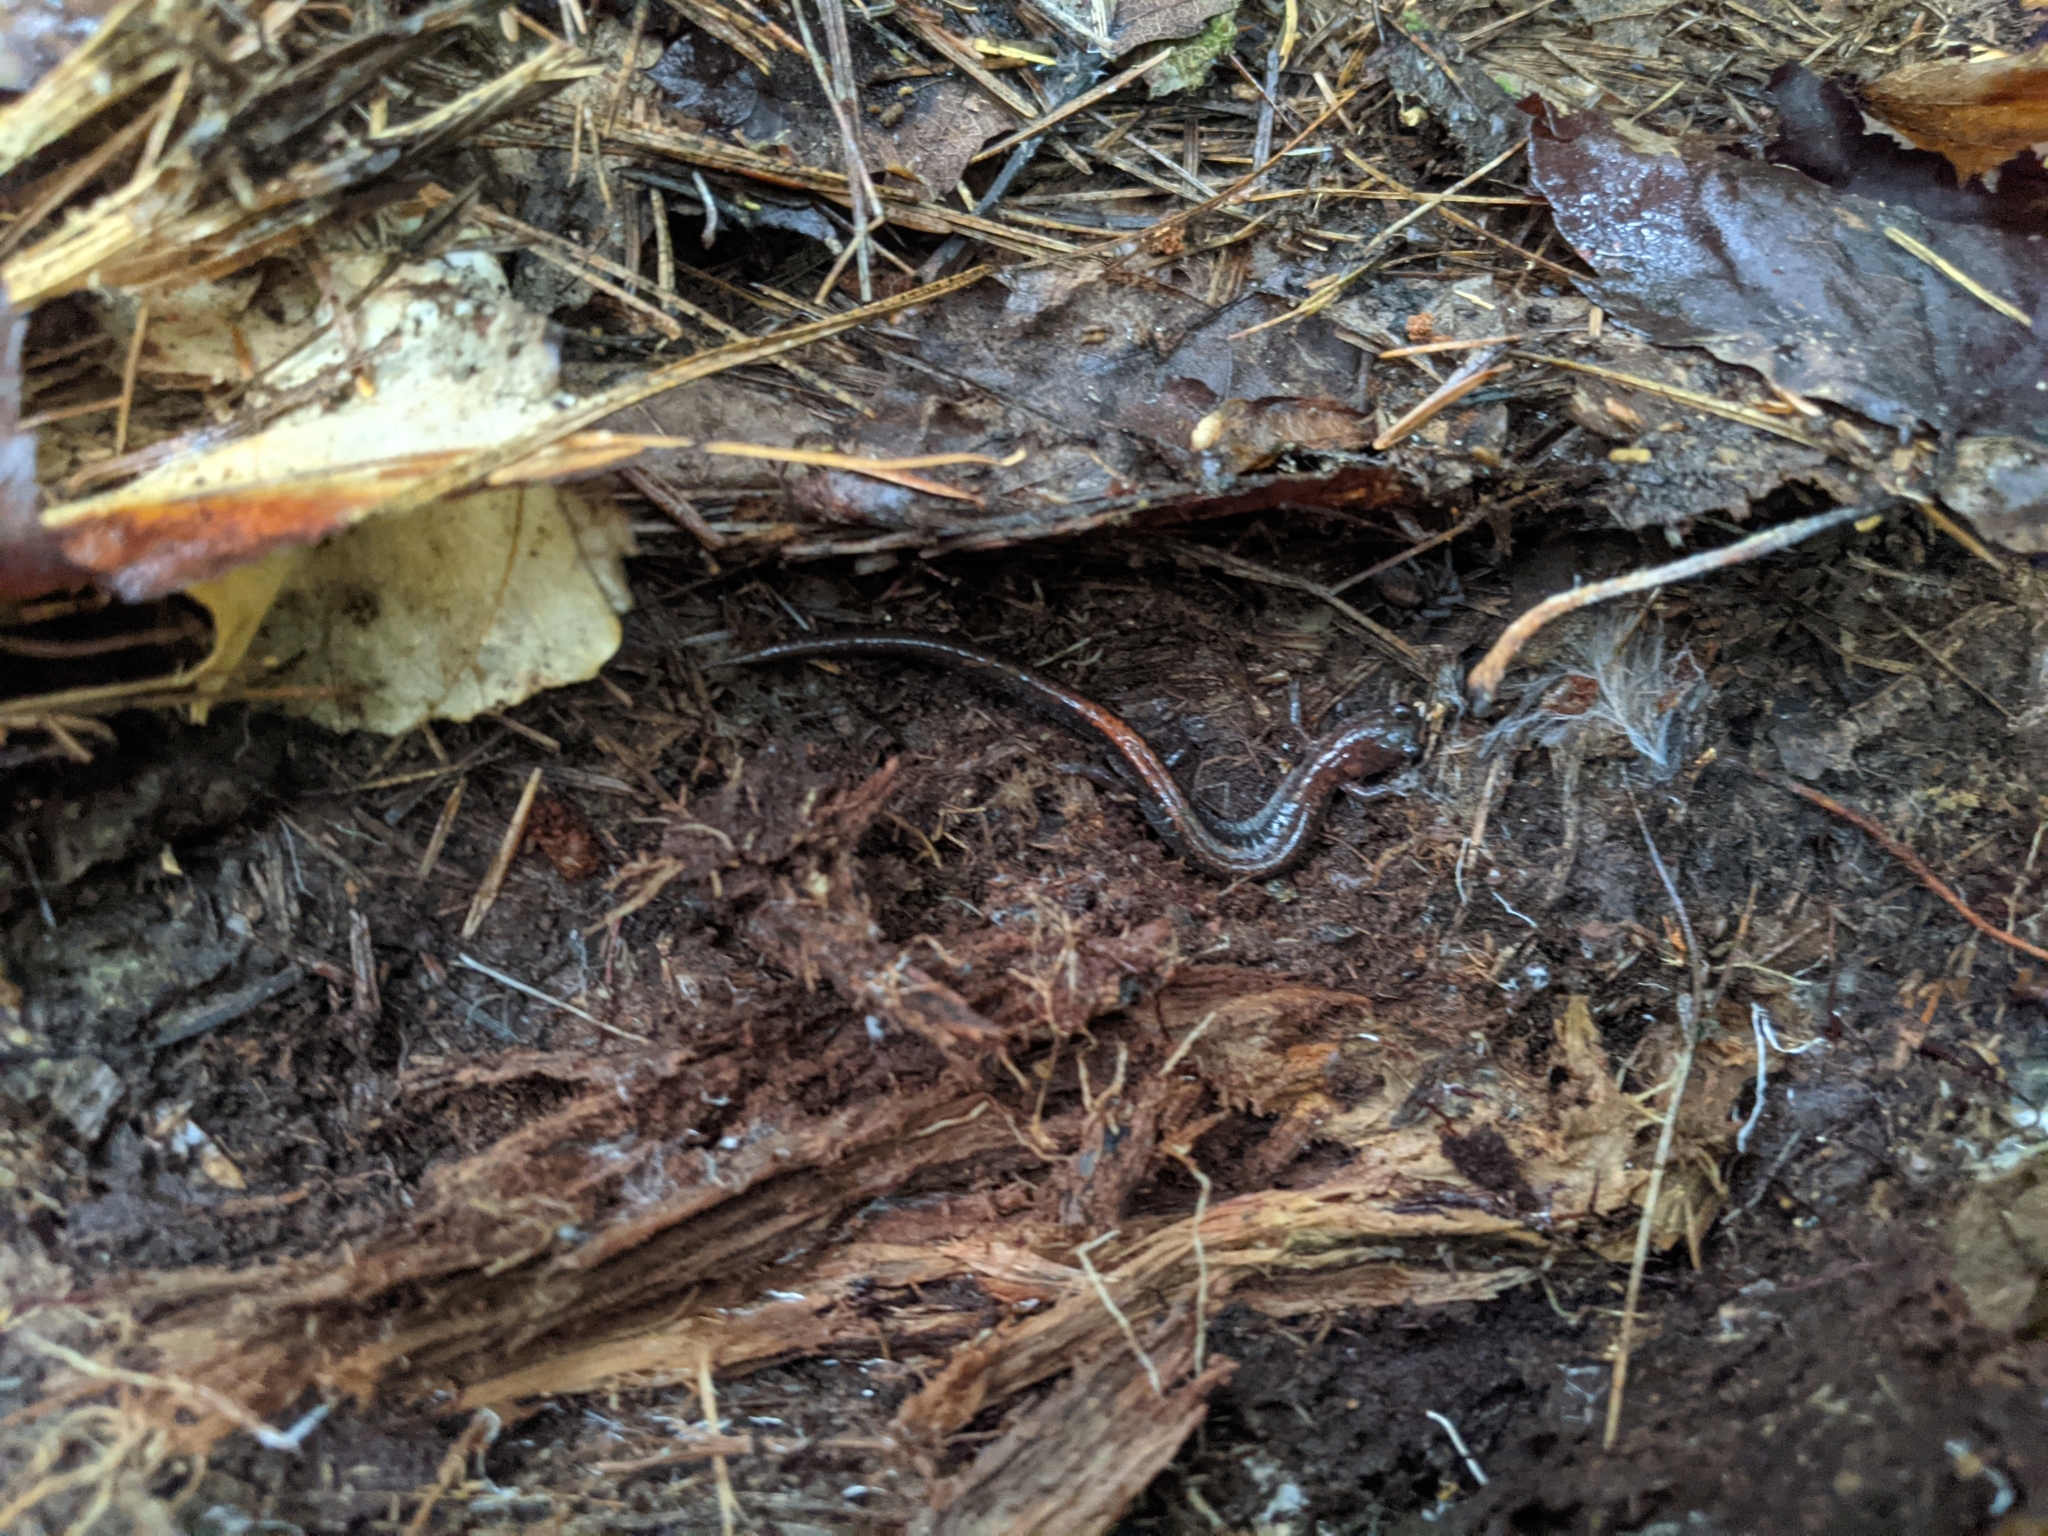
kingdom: Animalia
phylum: Chordata
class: Amphibia
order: Caudata
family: Plethodontidae
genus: Plethodon
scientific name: Plethodon cinereus
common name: Redback salamander
